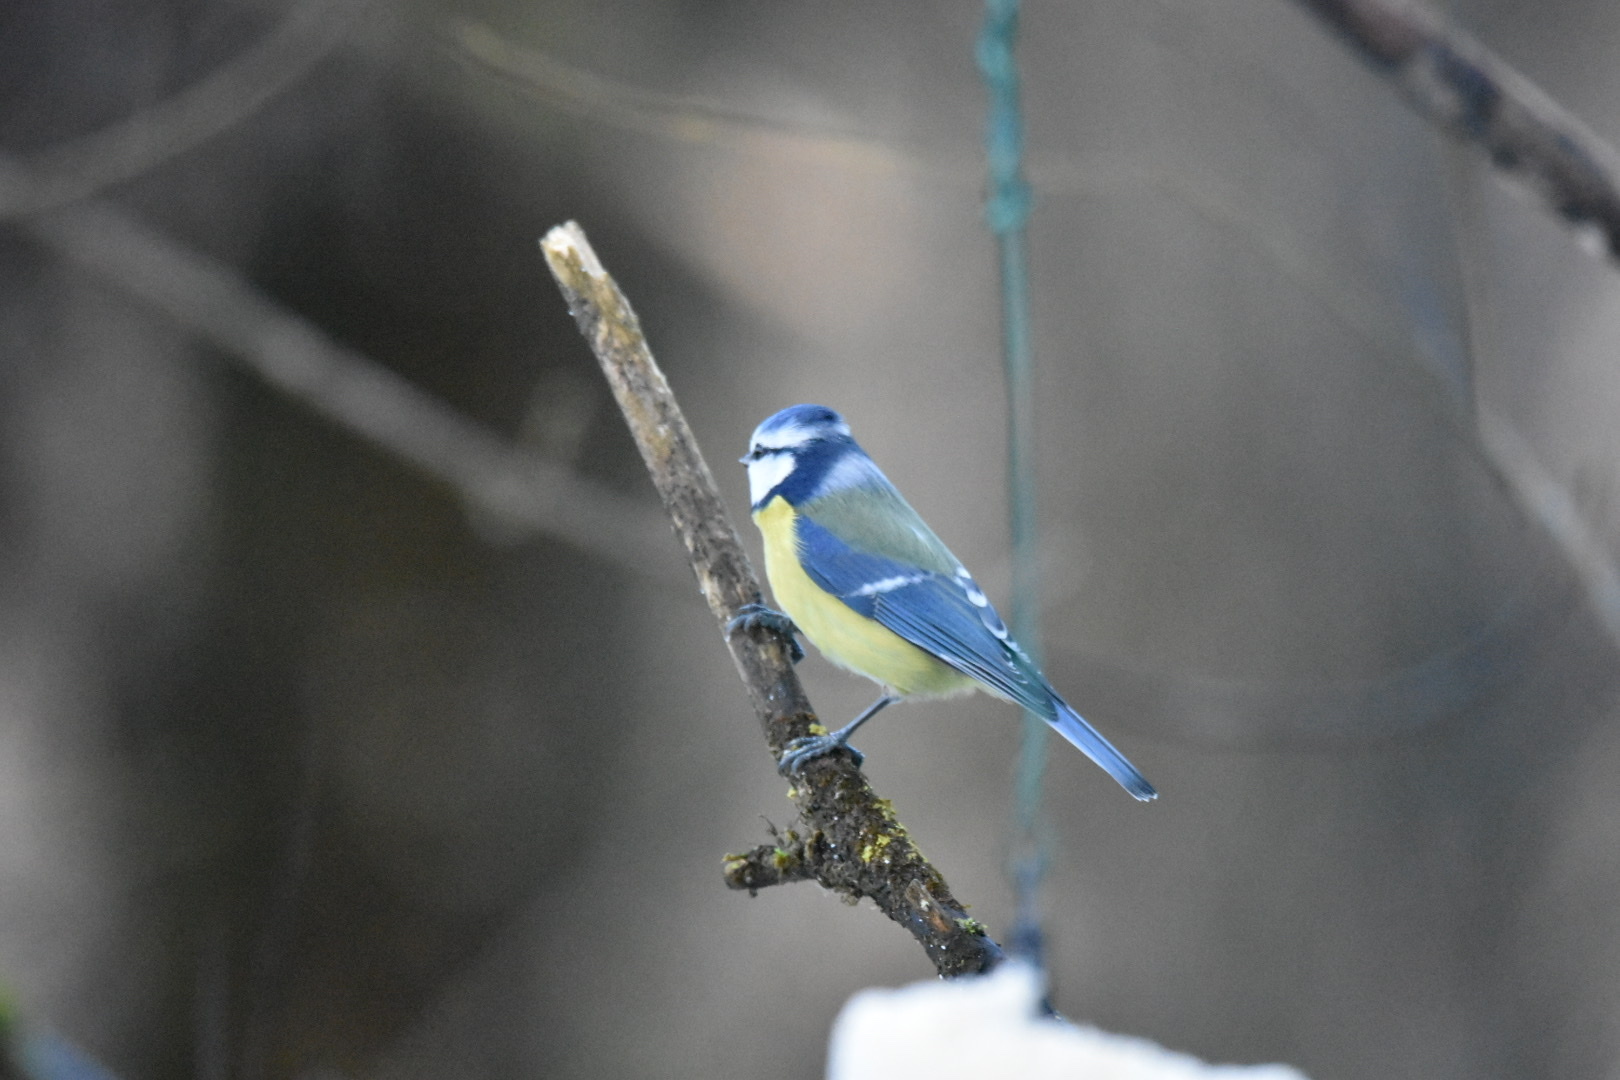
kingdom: Animalia
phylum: Chordata
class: Aves
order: Passeriformes
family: Paridae
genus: Cyanistes
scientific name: Cyanistes caeruleus
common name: Eurasian blue tit
